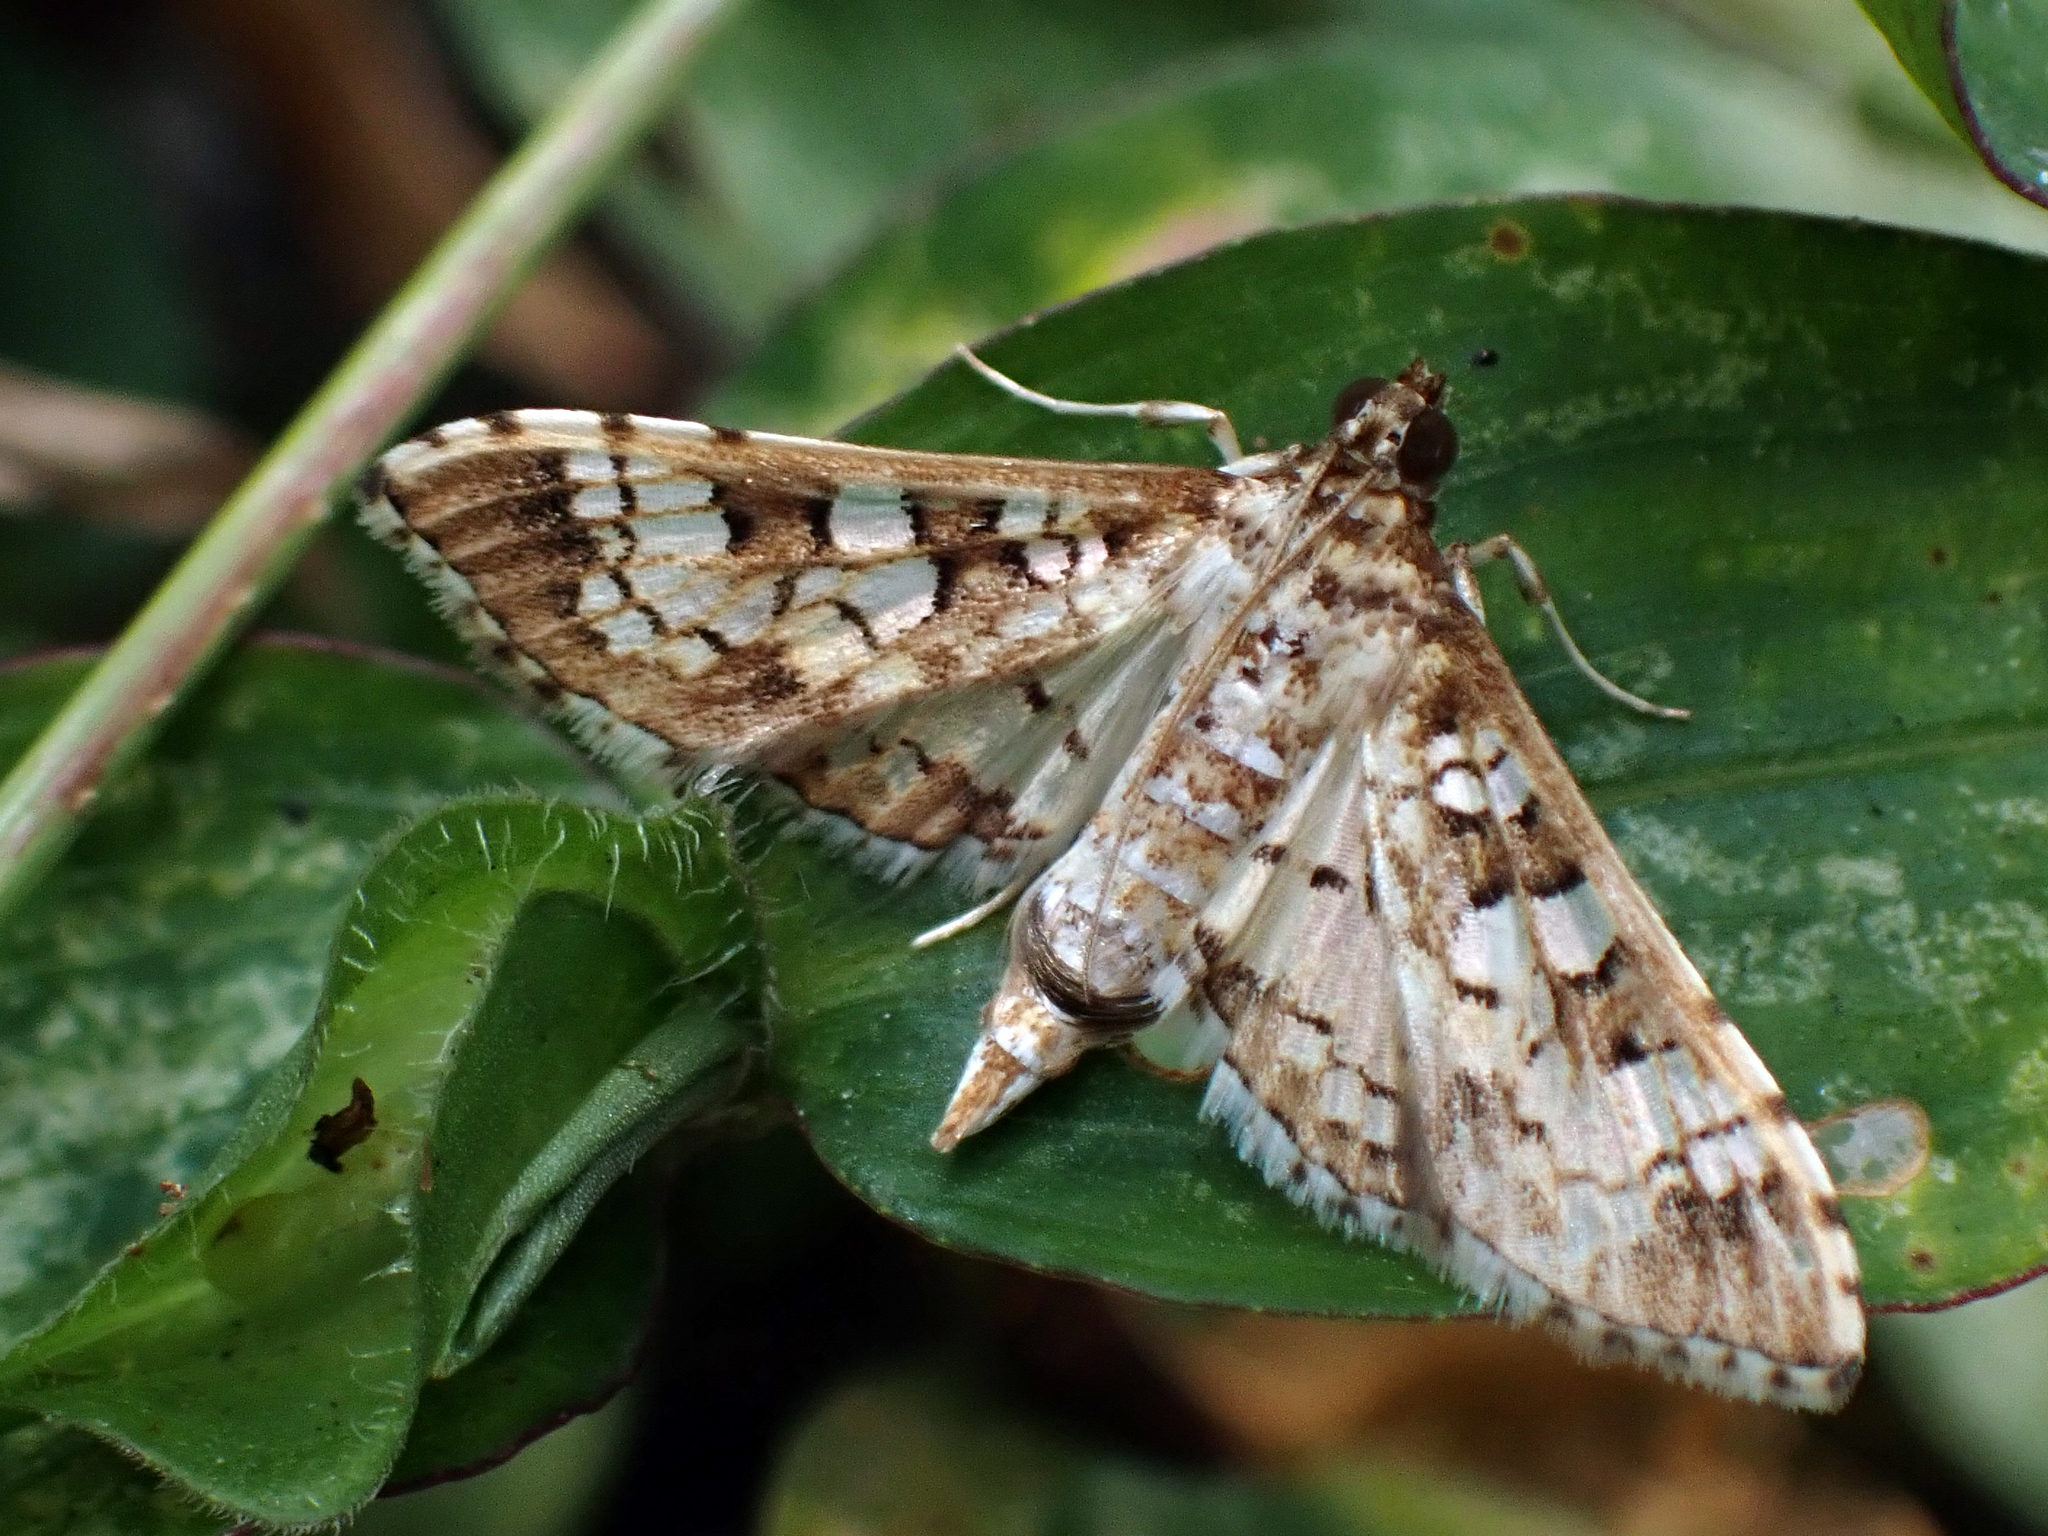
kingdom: Animalia
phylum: Arthropoda
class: Insecta
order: Lepidoptera
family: Crambidae
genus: Samea
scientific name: Samea ecclesialis
